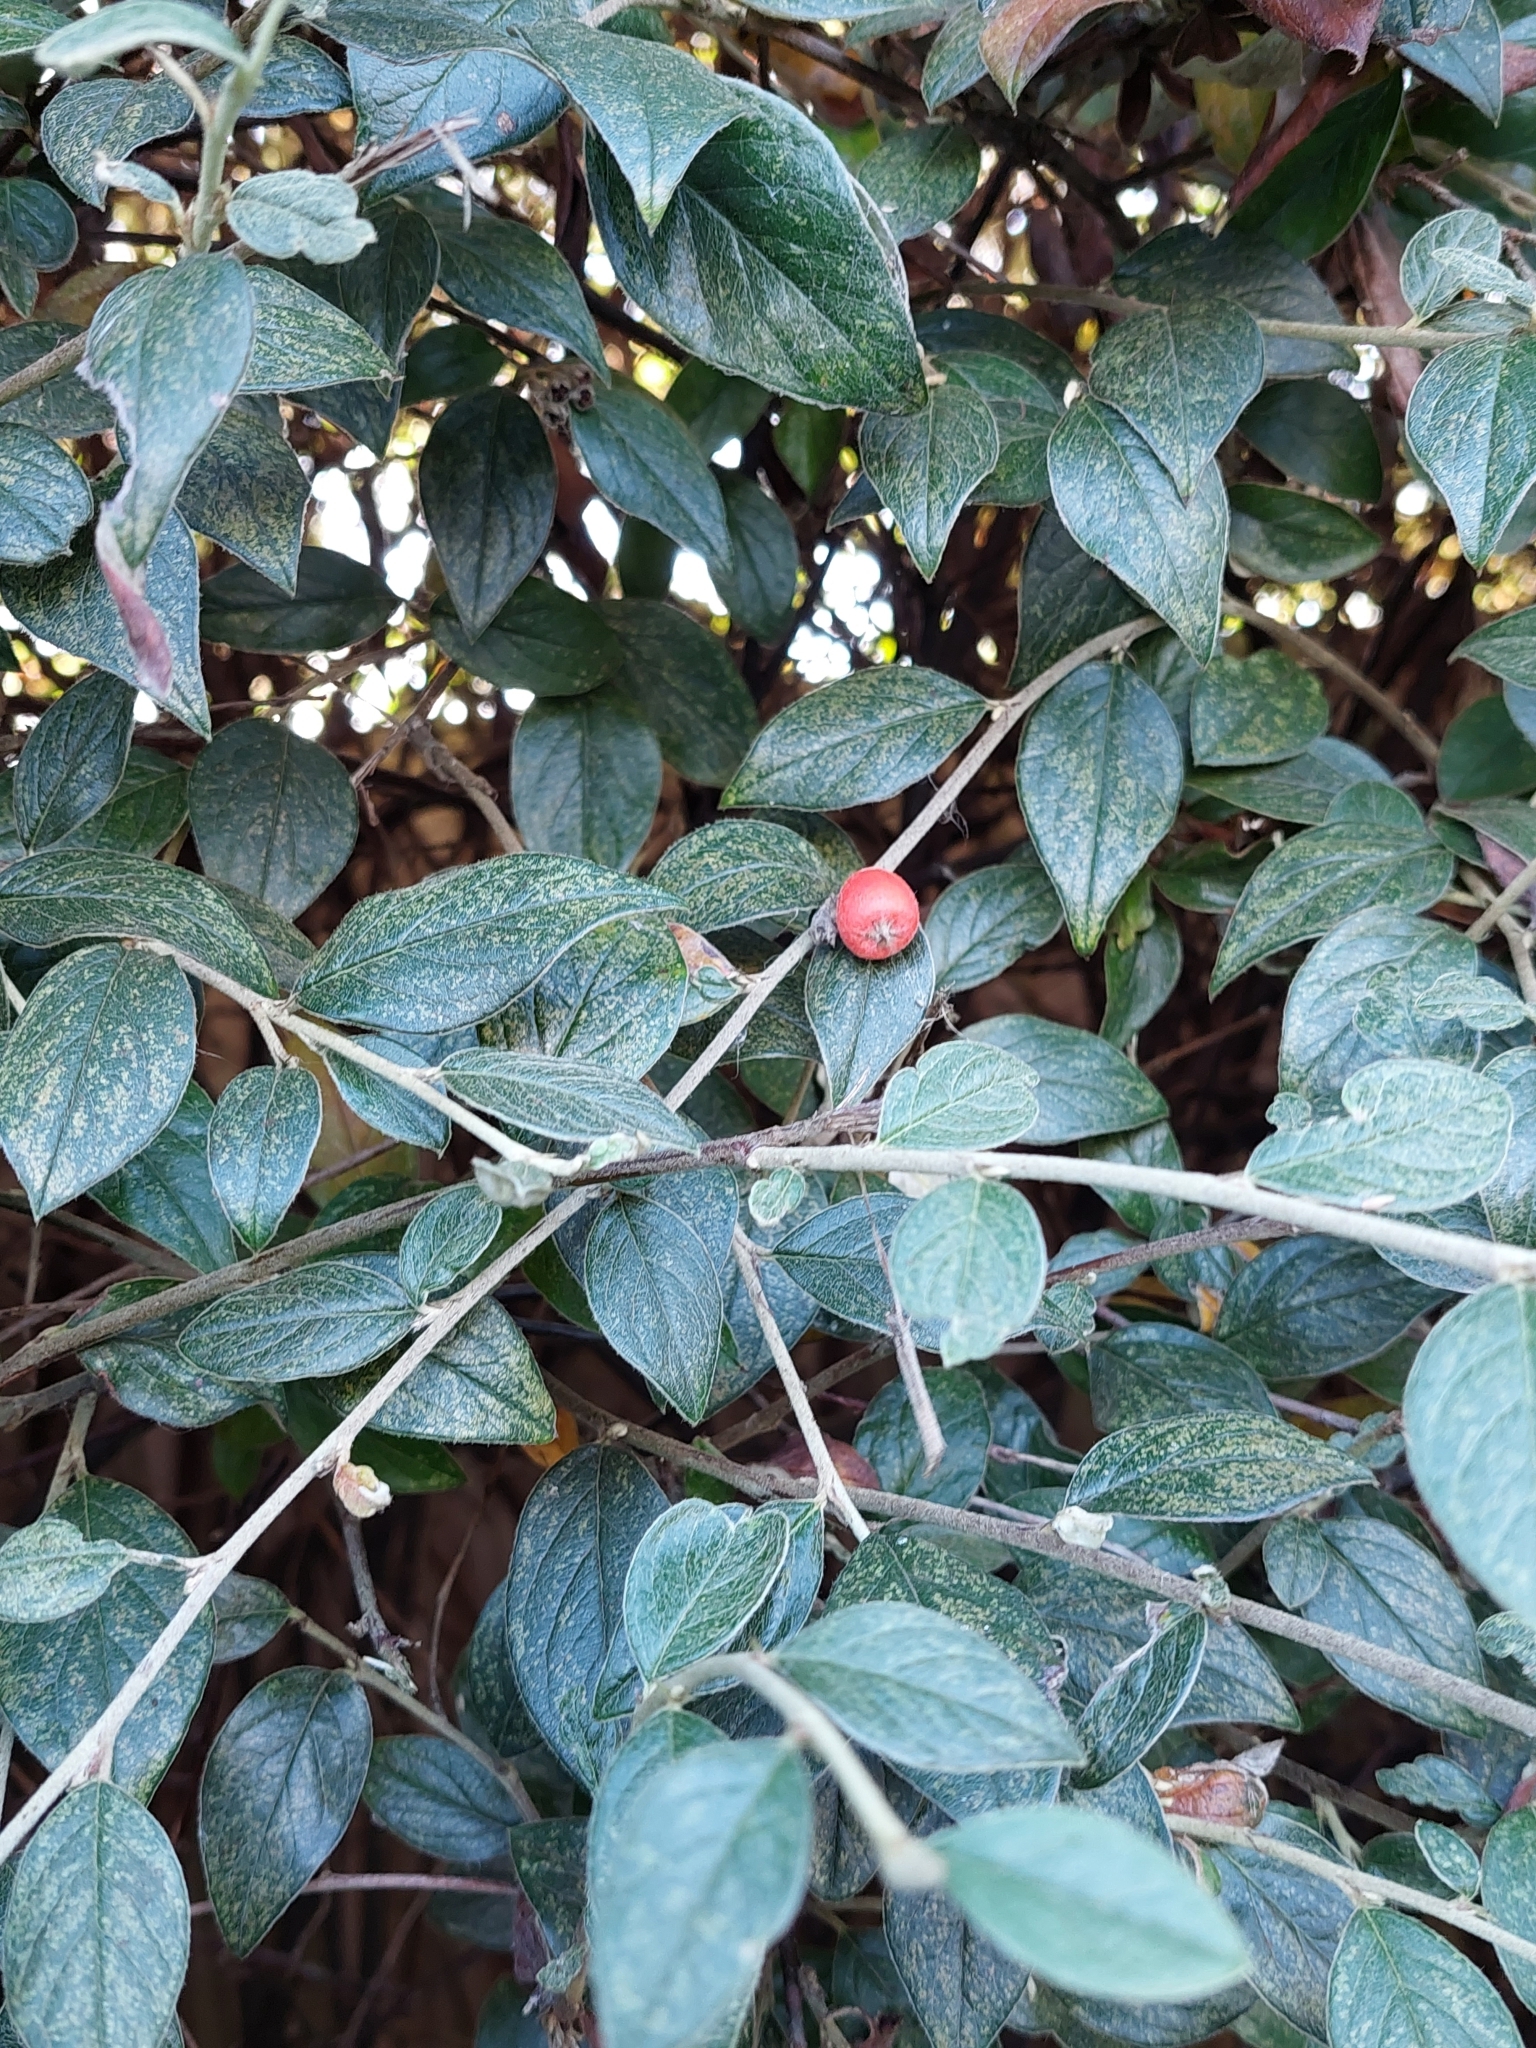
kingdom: Plantae
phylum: Tracheophyta
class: Magnoliopsida
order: Rosales
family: Rosaceae
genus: Cotoneaster
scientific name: Cotoneaster franchetii
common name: Franchet's cotoneaster
